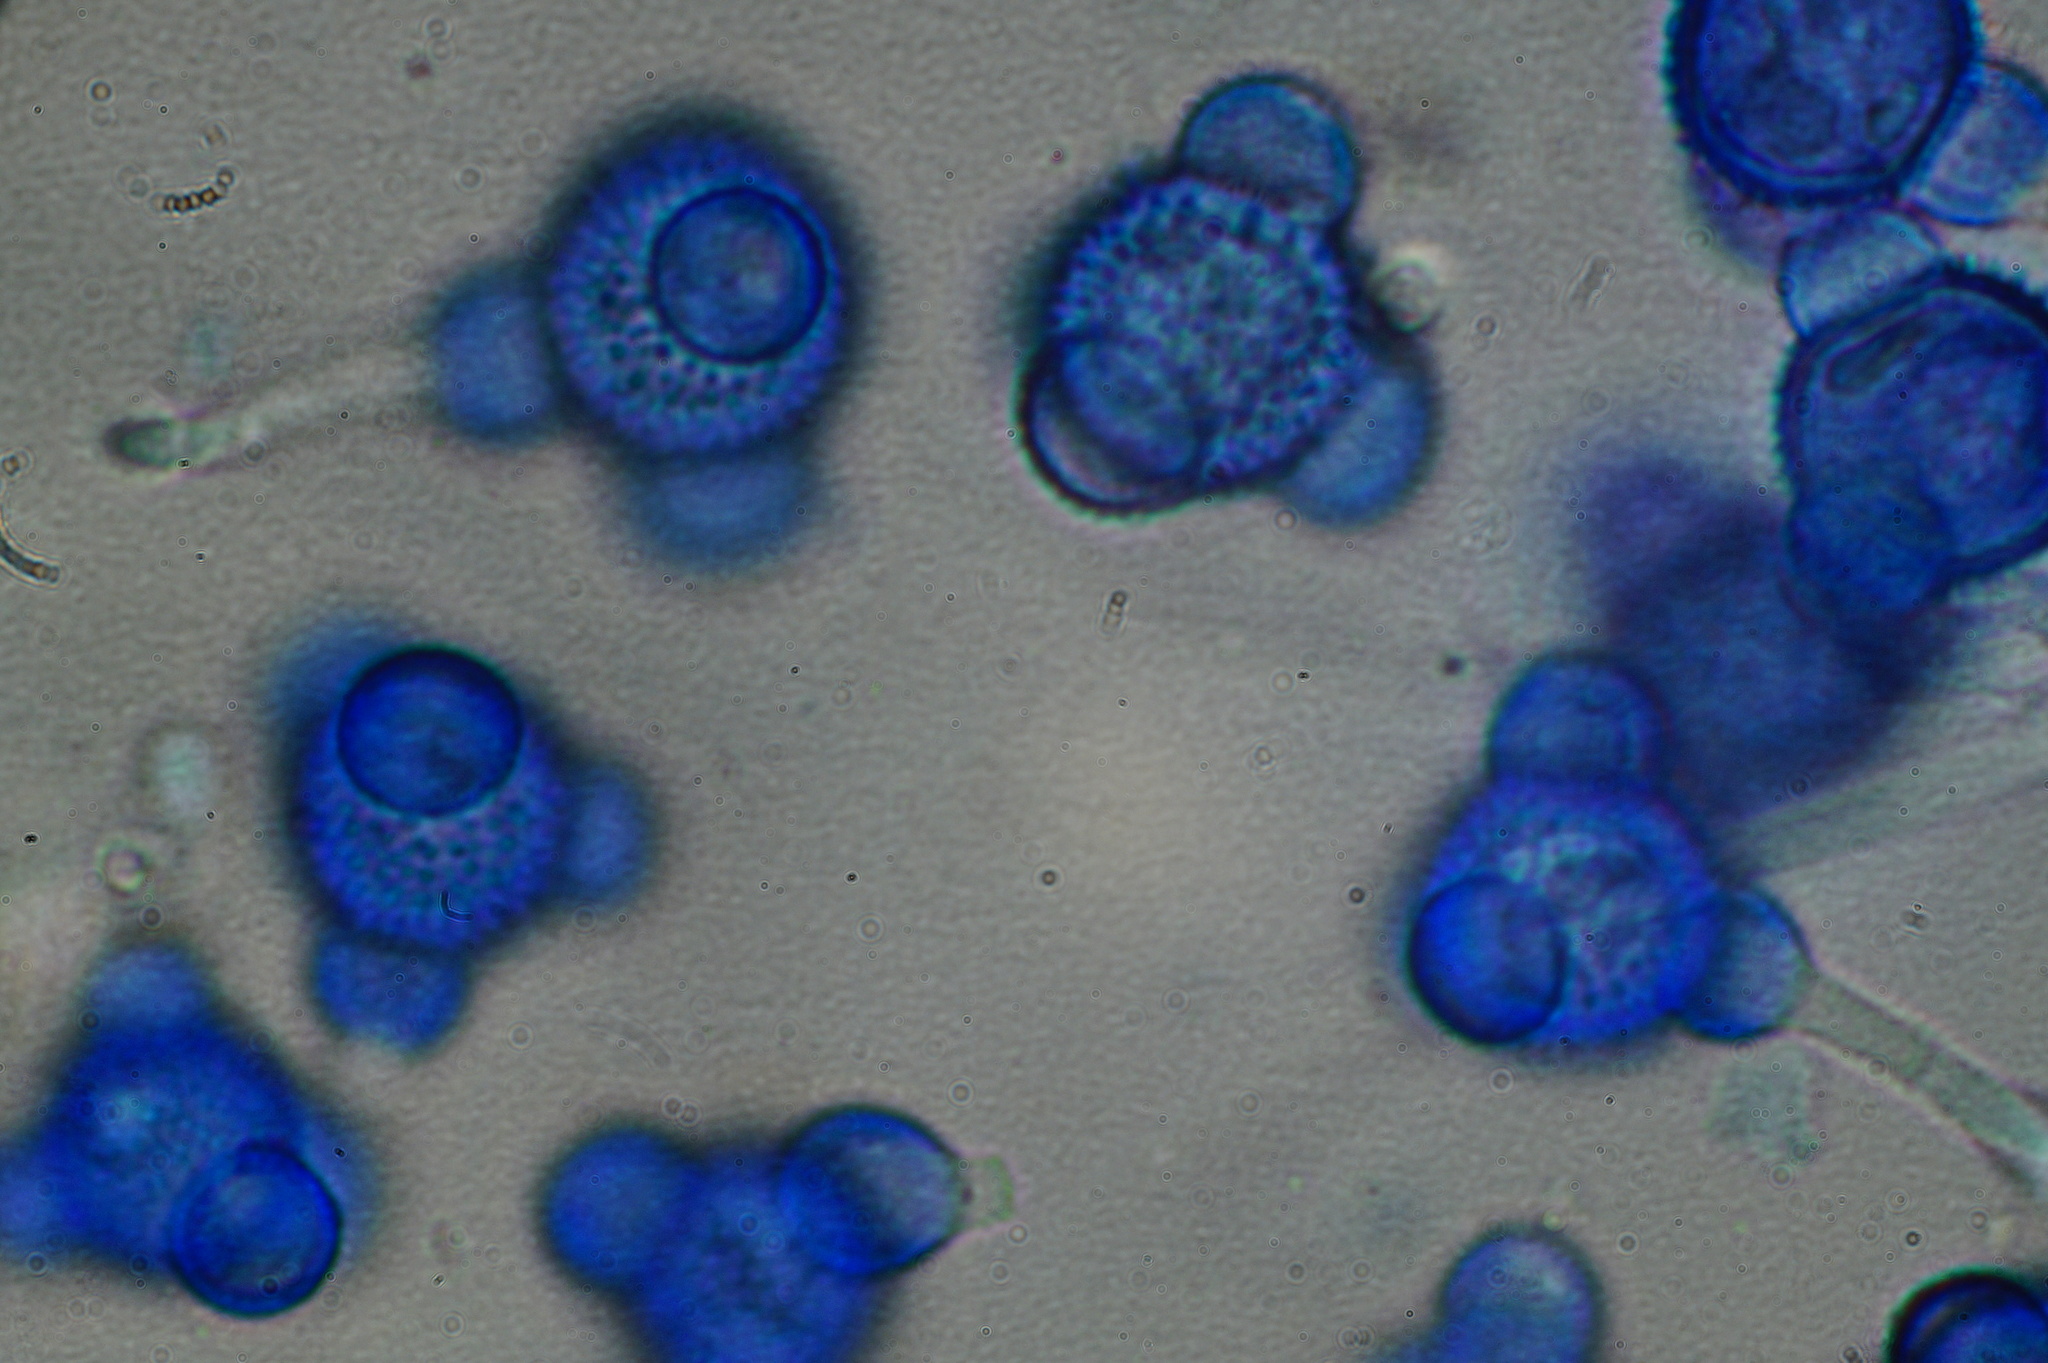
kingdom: Fungi
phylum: Ascomycota
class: Sordariomycetes
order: Hypocreales
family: Hypocreaceae
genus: Stephanoma
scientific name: Stephanoma tetracoccum
